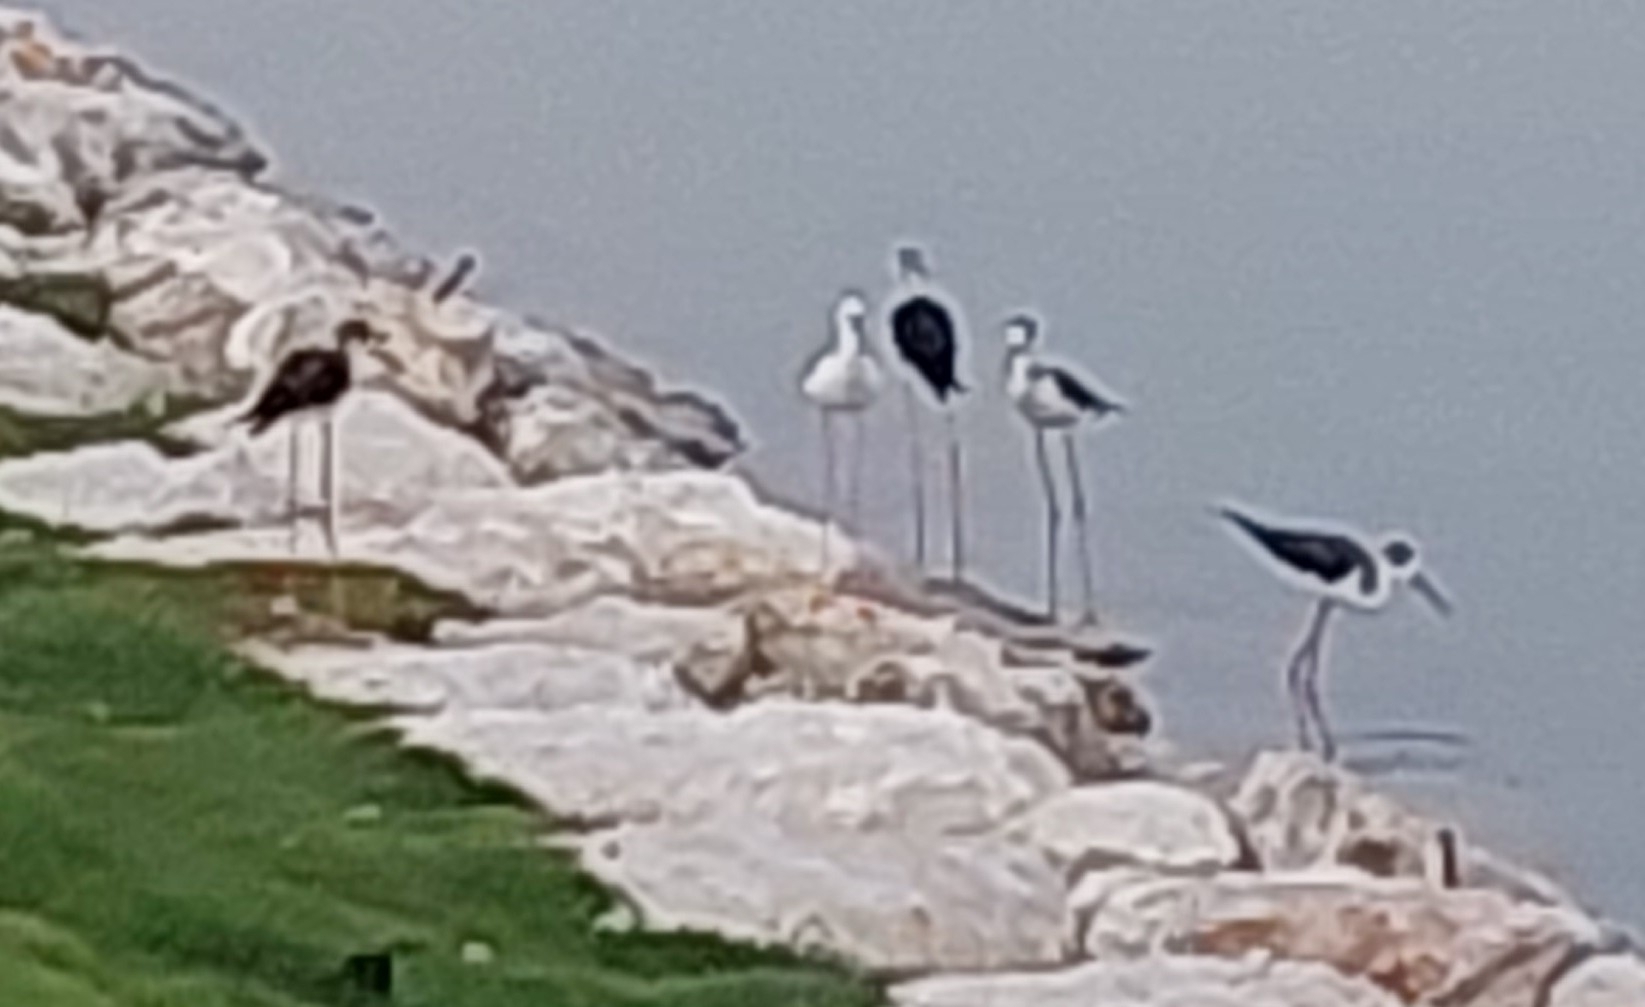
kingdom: Animalia
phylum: Chordata
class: Aves
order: Charadriiformes
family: Recurvirostridae
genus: Himantopus
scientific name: Himantopus himantopus
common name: Black-winged stilt
